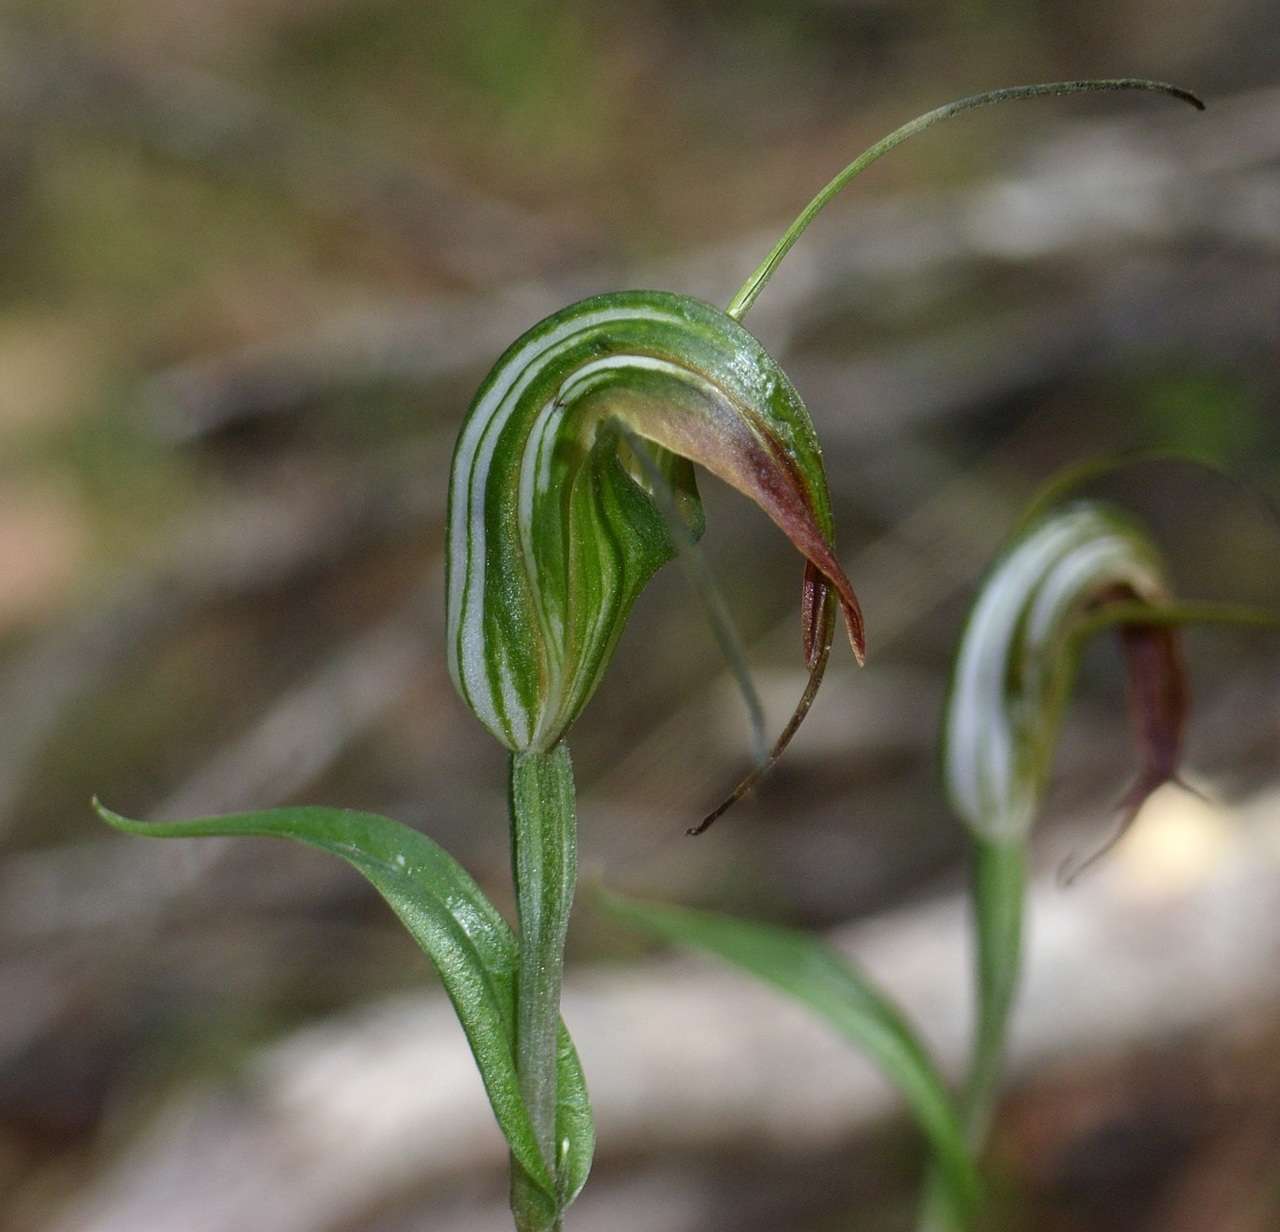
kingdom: Plantae
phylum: Tracheophyta
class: Liliopsida
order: Asparagales
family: Orchidaceae
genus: Pterostylis
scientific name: Pterostylis decurva
